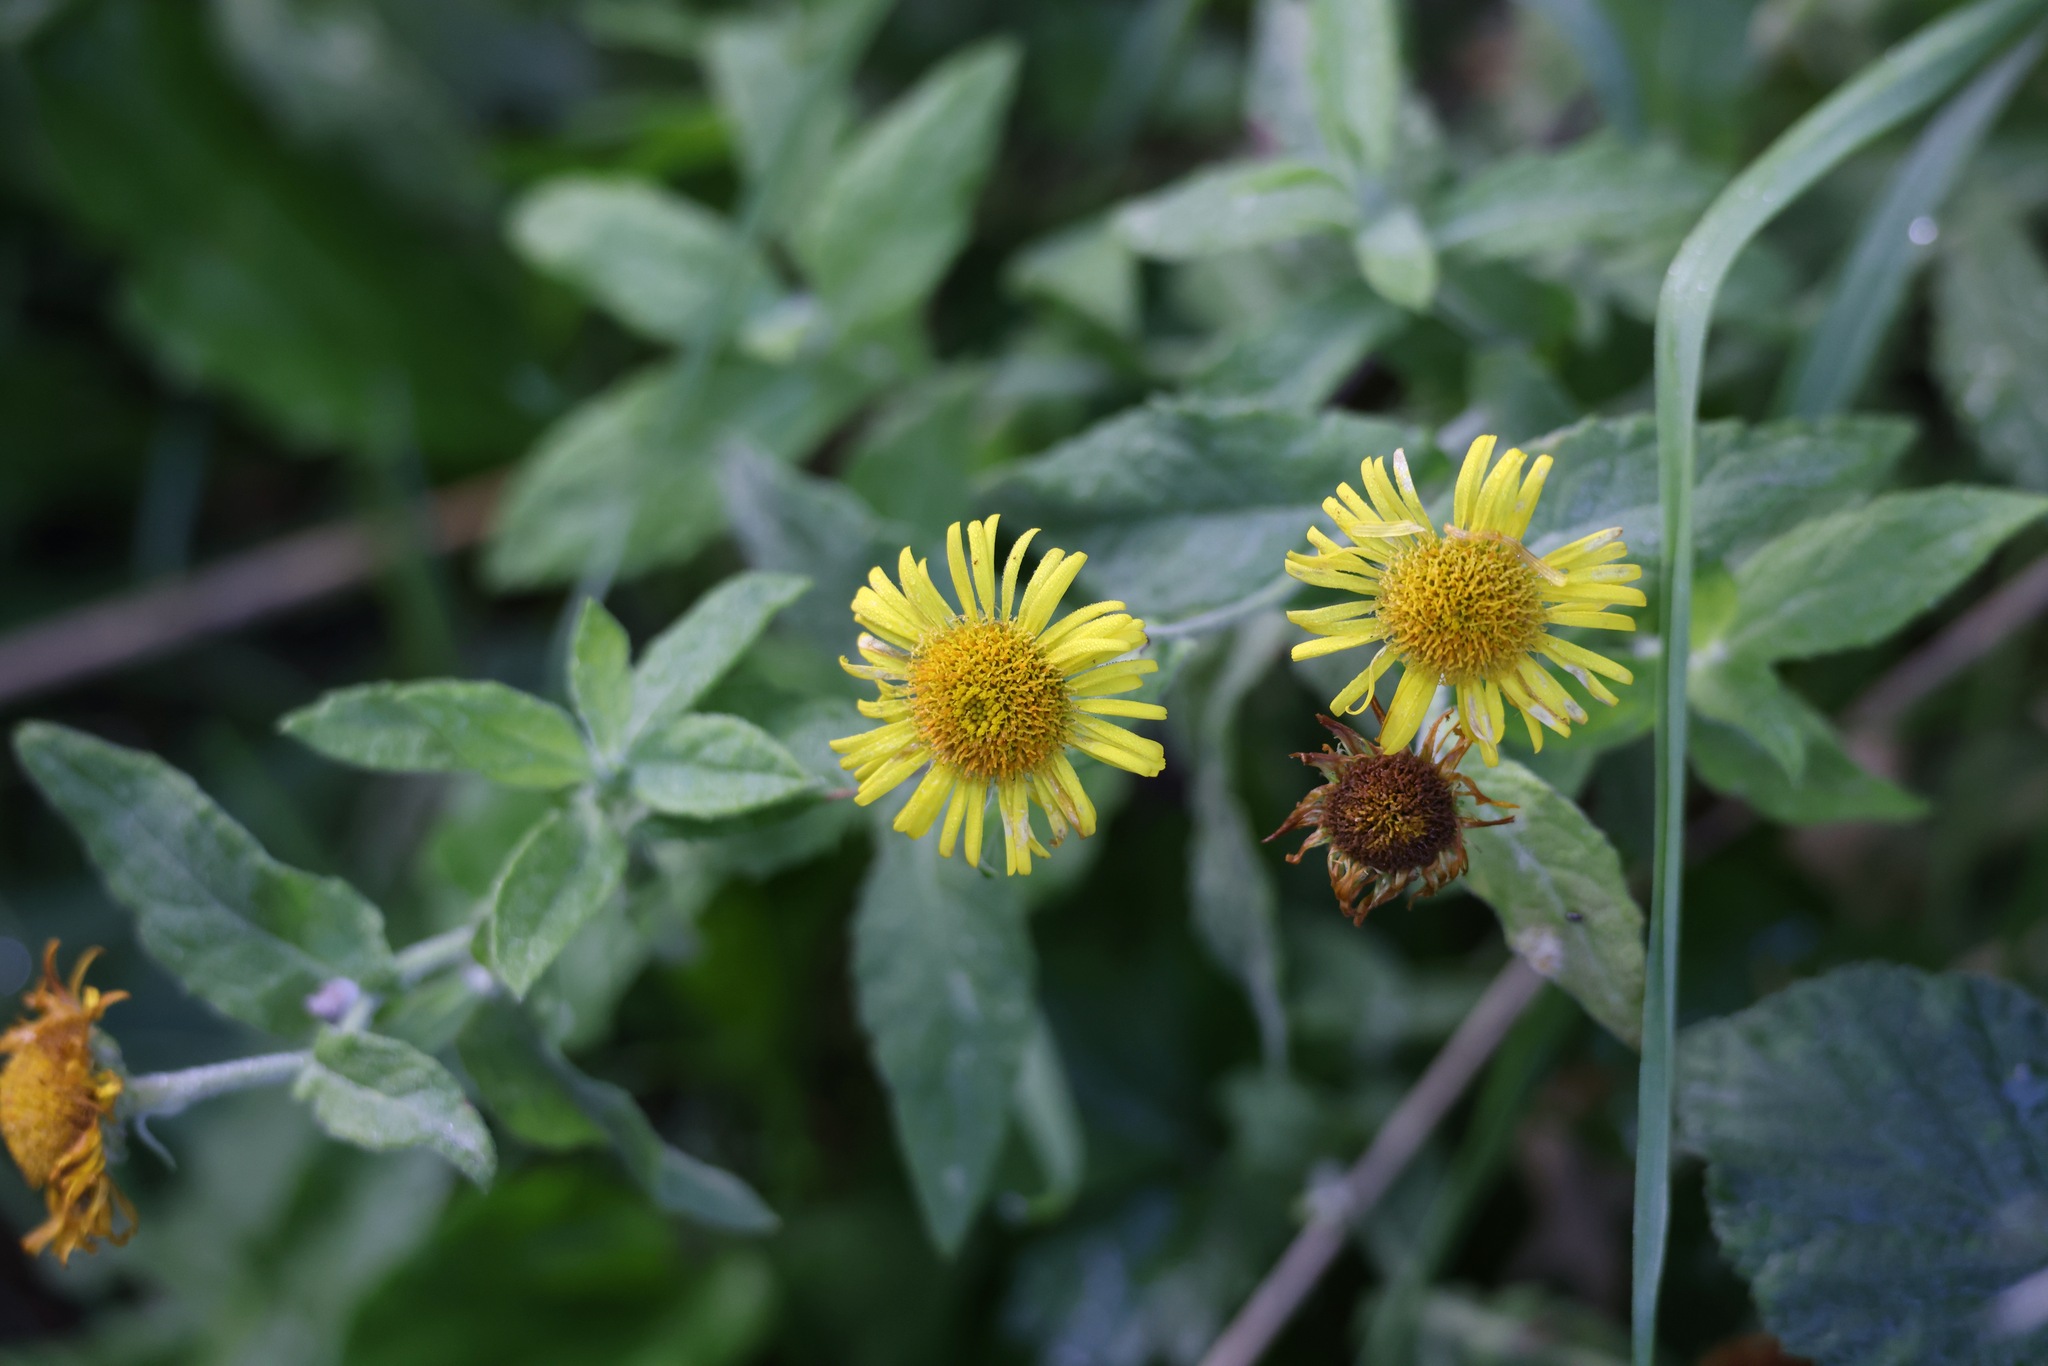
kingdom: Plantae
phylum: Tracheophyta
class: Magnoliopsida
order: Asterales
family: Asteraceae
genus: Pulicaria
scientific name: Pulicaria dysenterica
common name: Common fleabane
